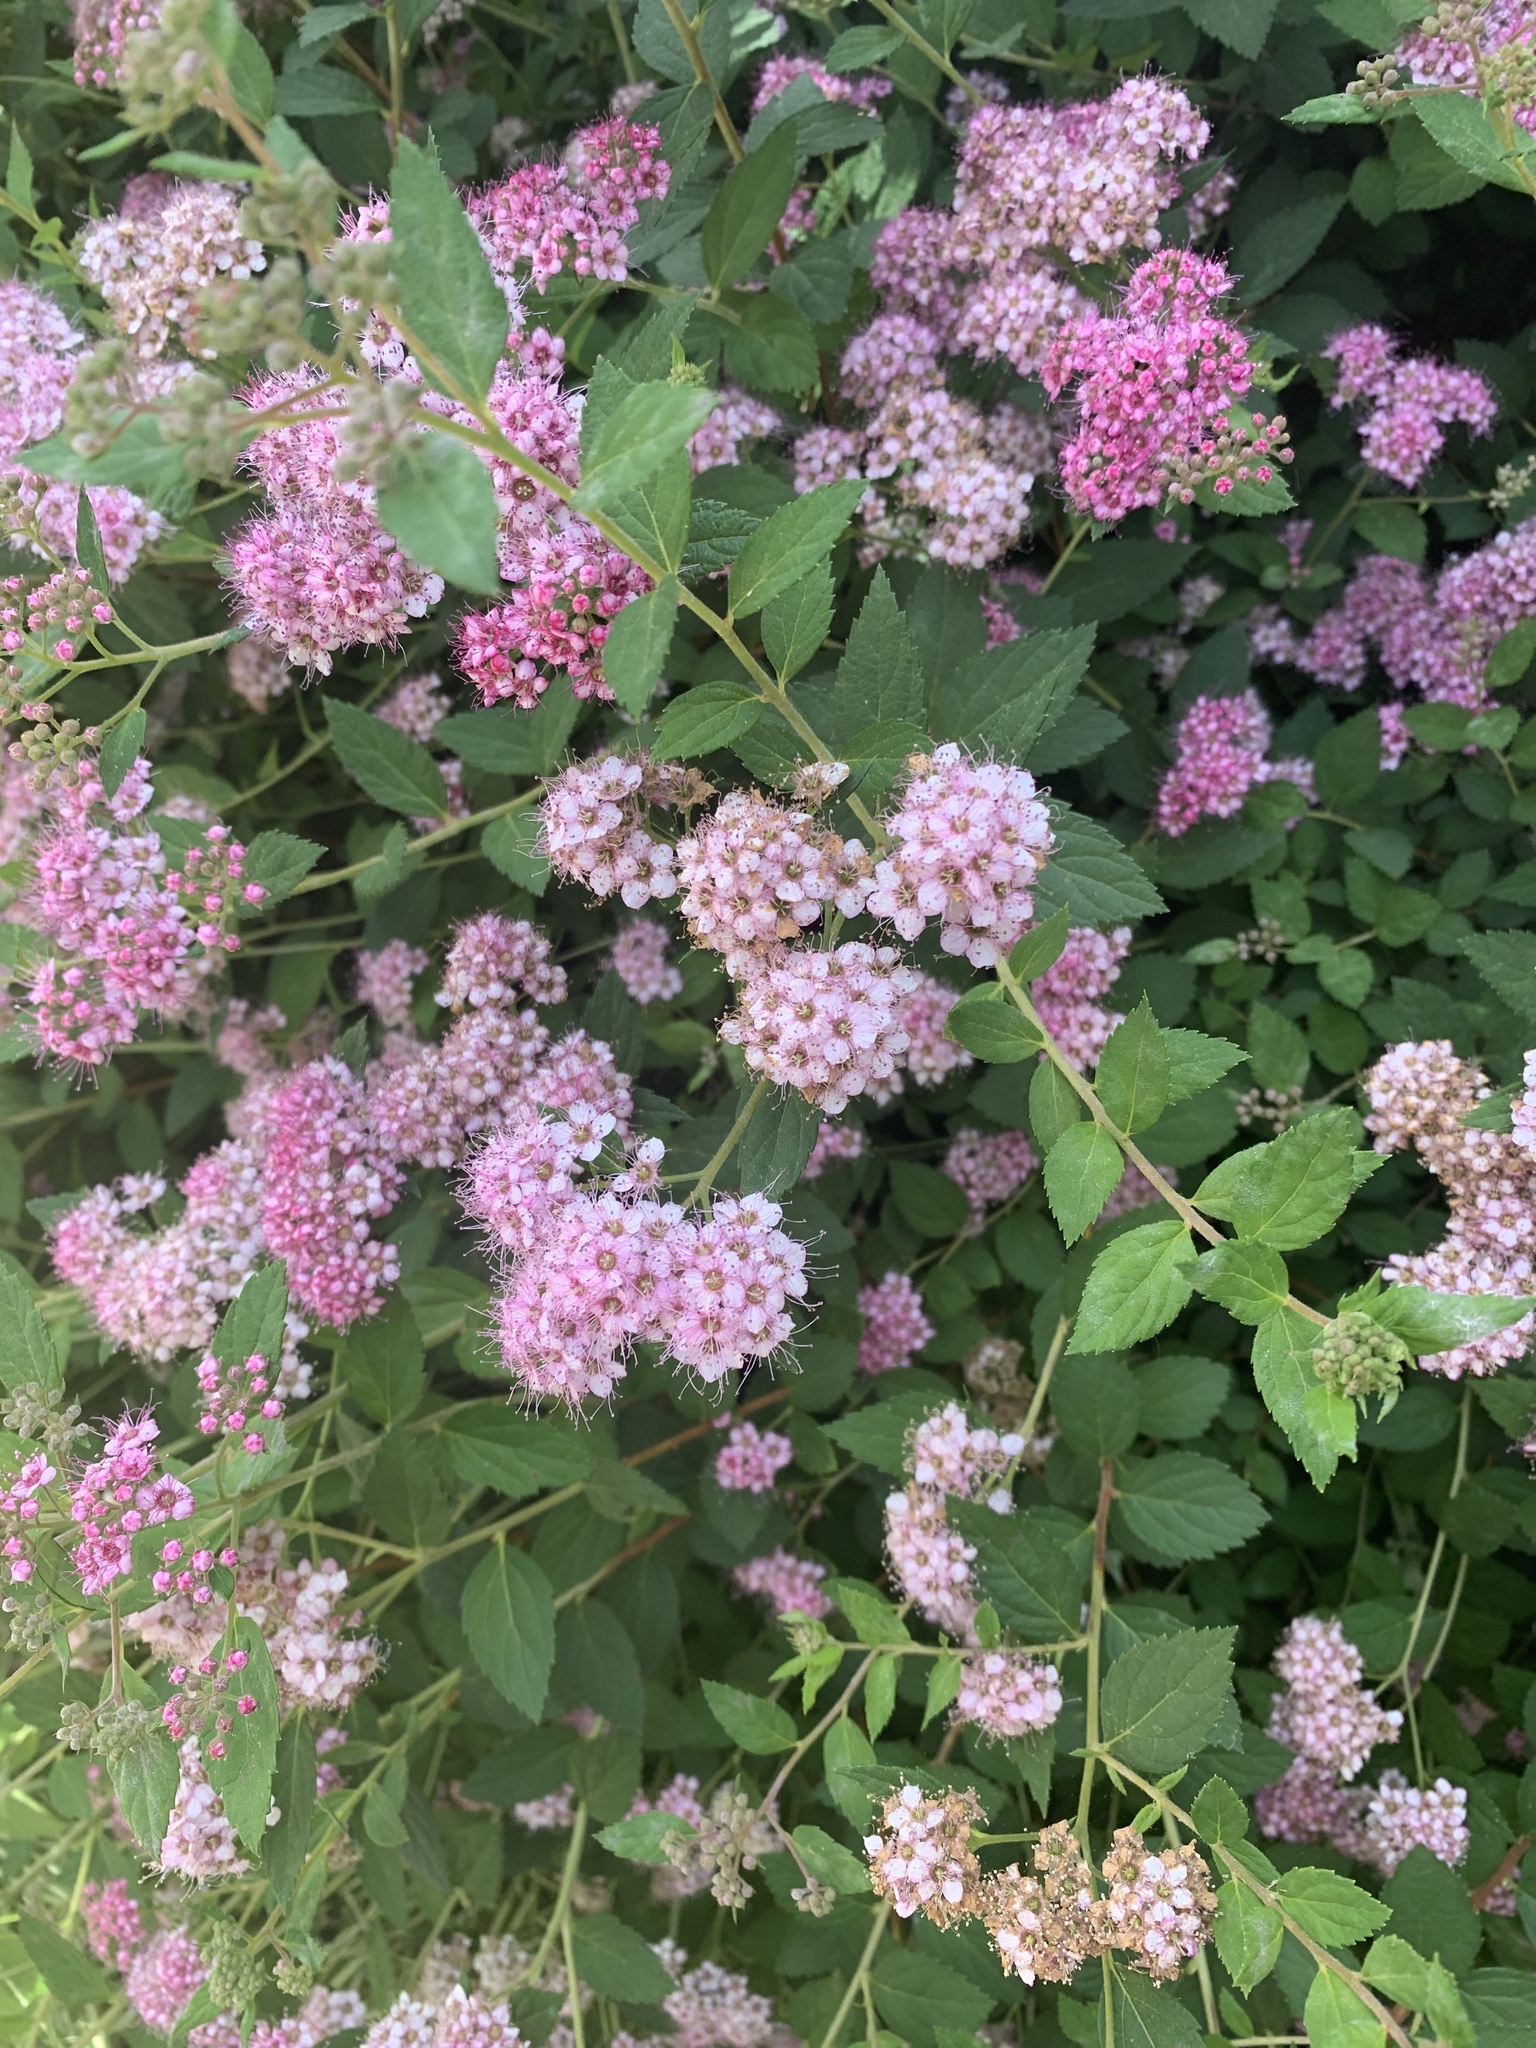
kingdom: Plantae
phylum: Tracheophyta
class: Magnoliopsida
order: Rosales
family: Rosaceae
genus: Spiraea
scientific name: Spiraea japonica
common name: Japanese spiraea
